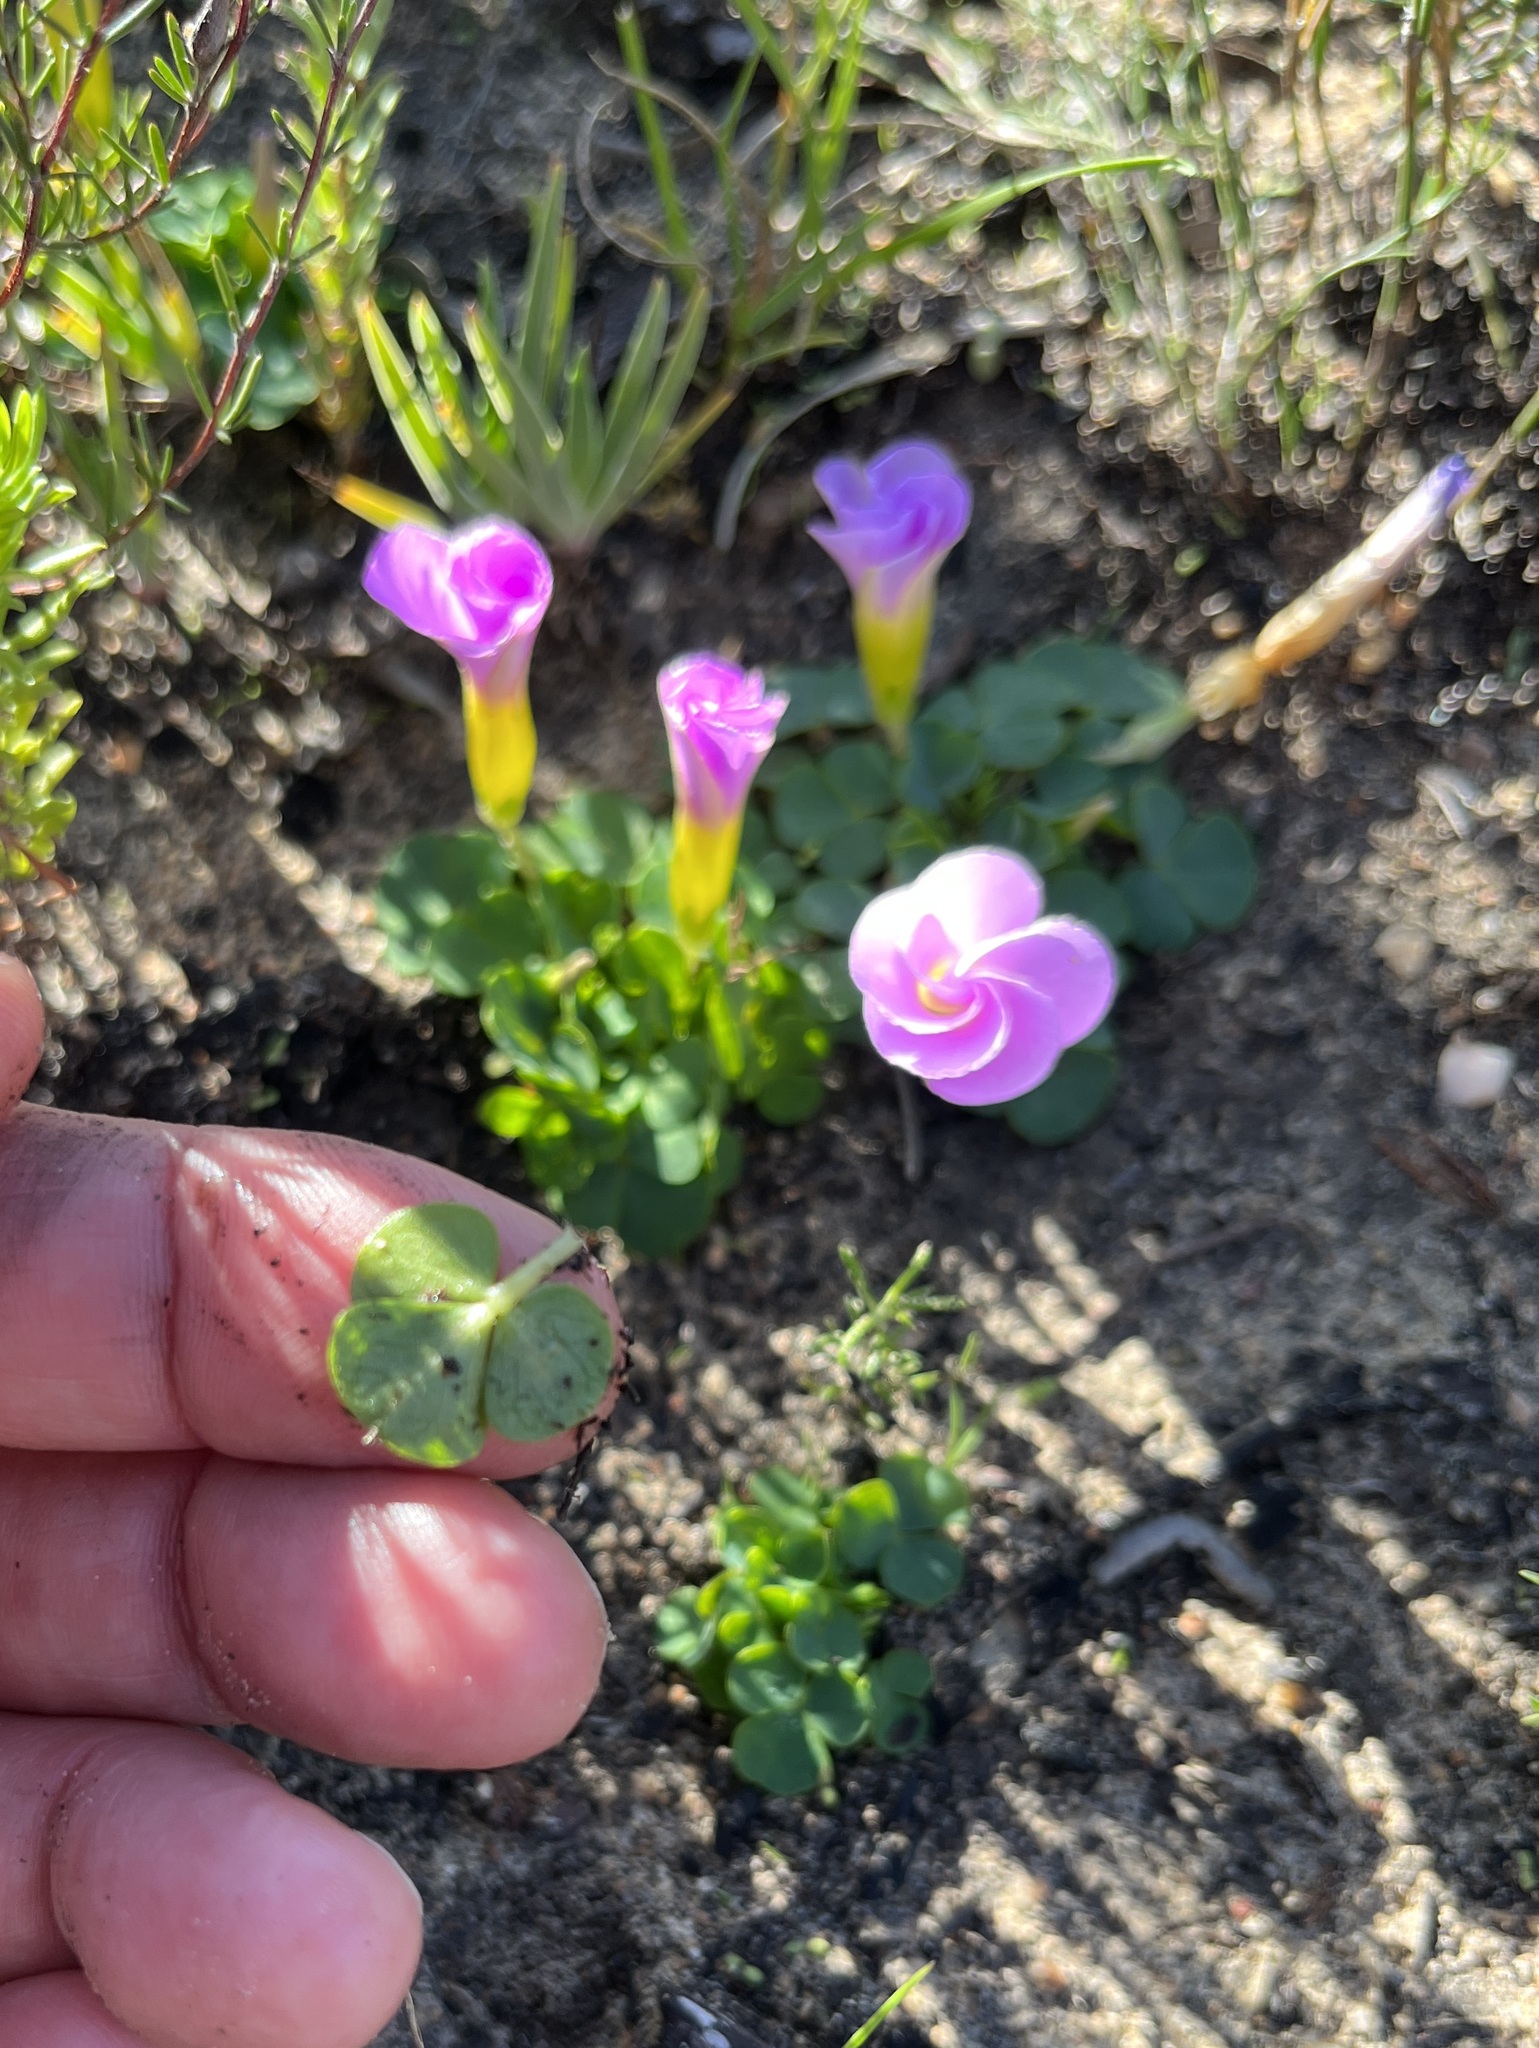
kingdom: Plantae
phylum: Tracheophyta
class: Magnoliopsida
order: Oxalidales
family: Oxalidaceae
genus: Oxalis
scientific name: Oxalis purpurea
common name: Purple woodsorrel
